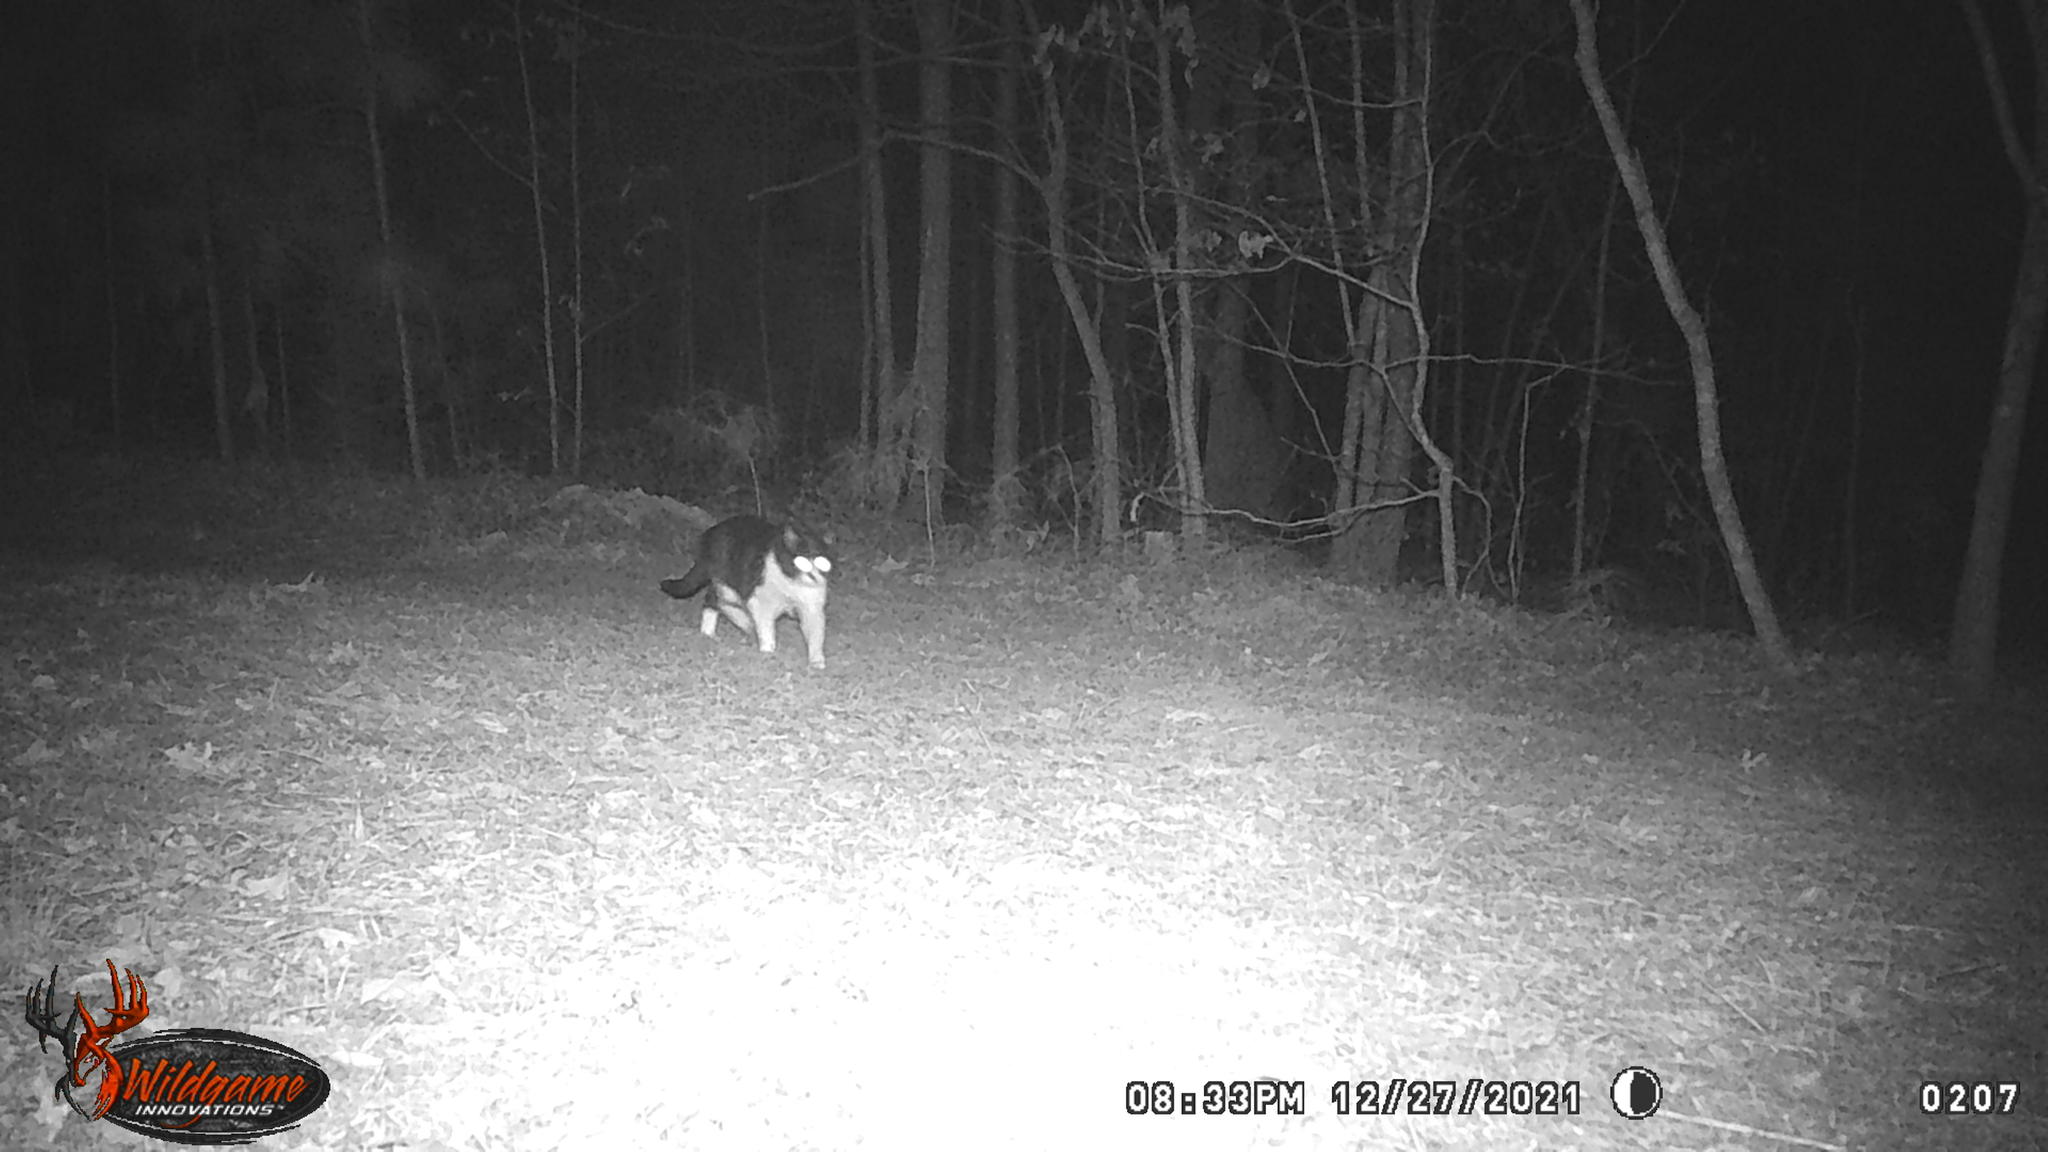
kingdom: Animalia
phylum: Chordata
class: Mammalia
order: Carnivora
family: Felidae
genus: Felis
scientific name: Felis catus
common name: Domestic cat
